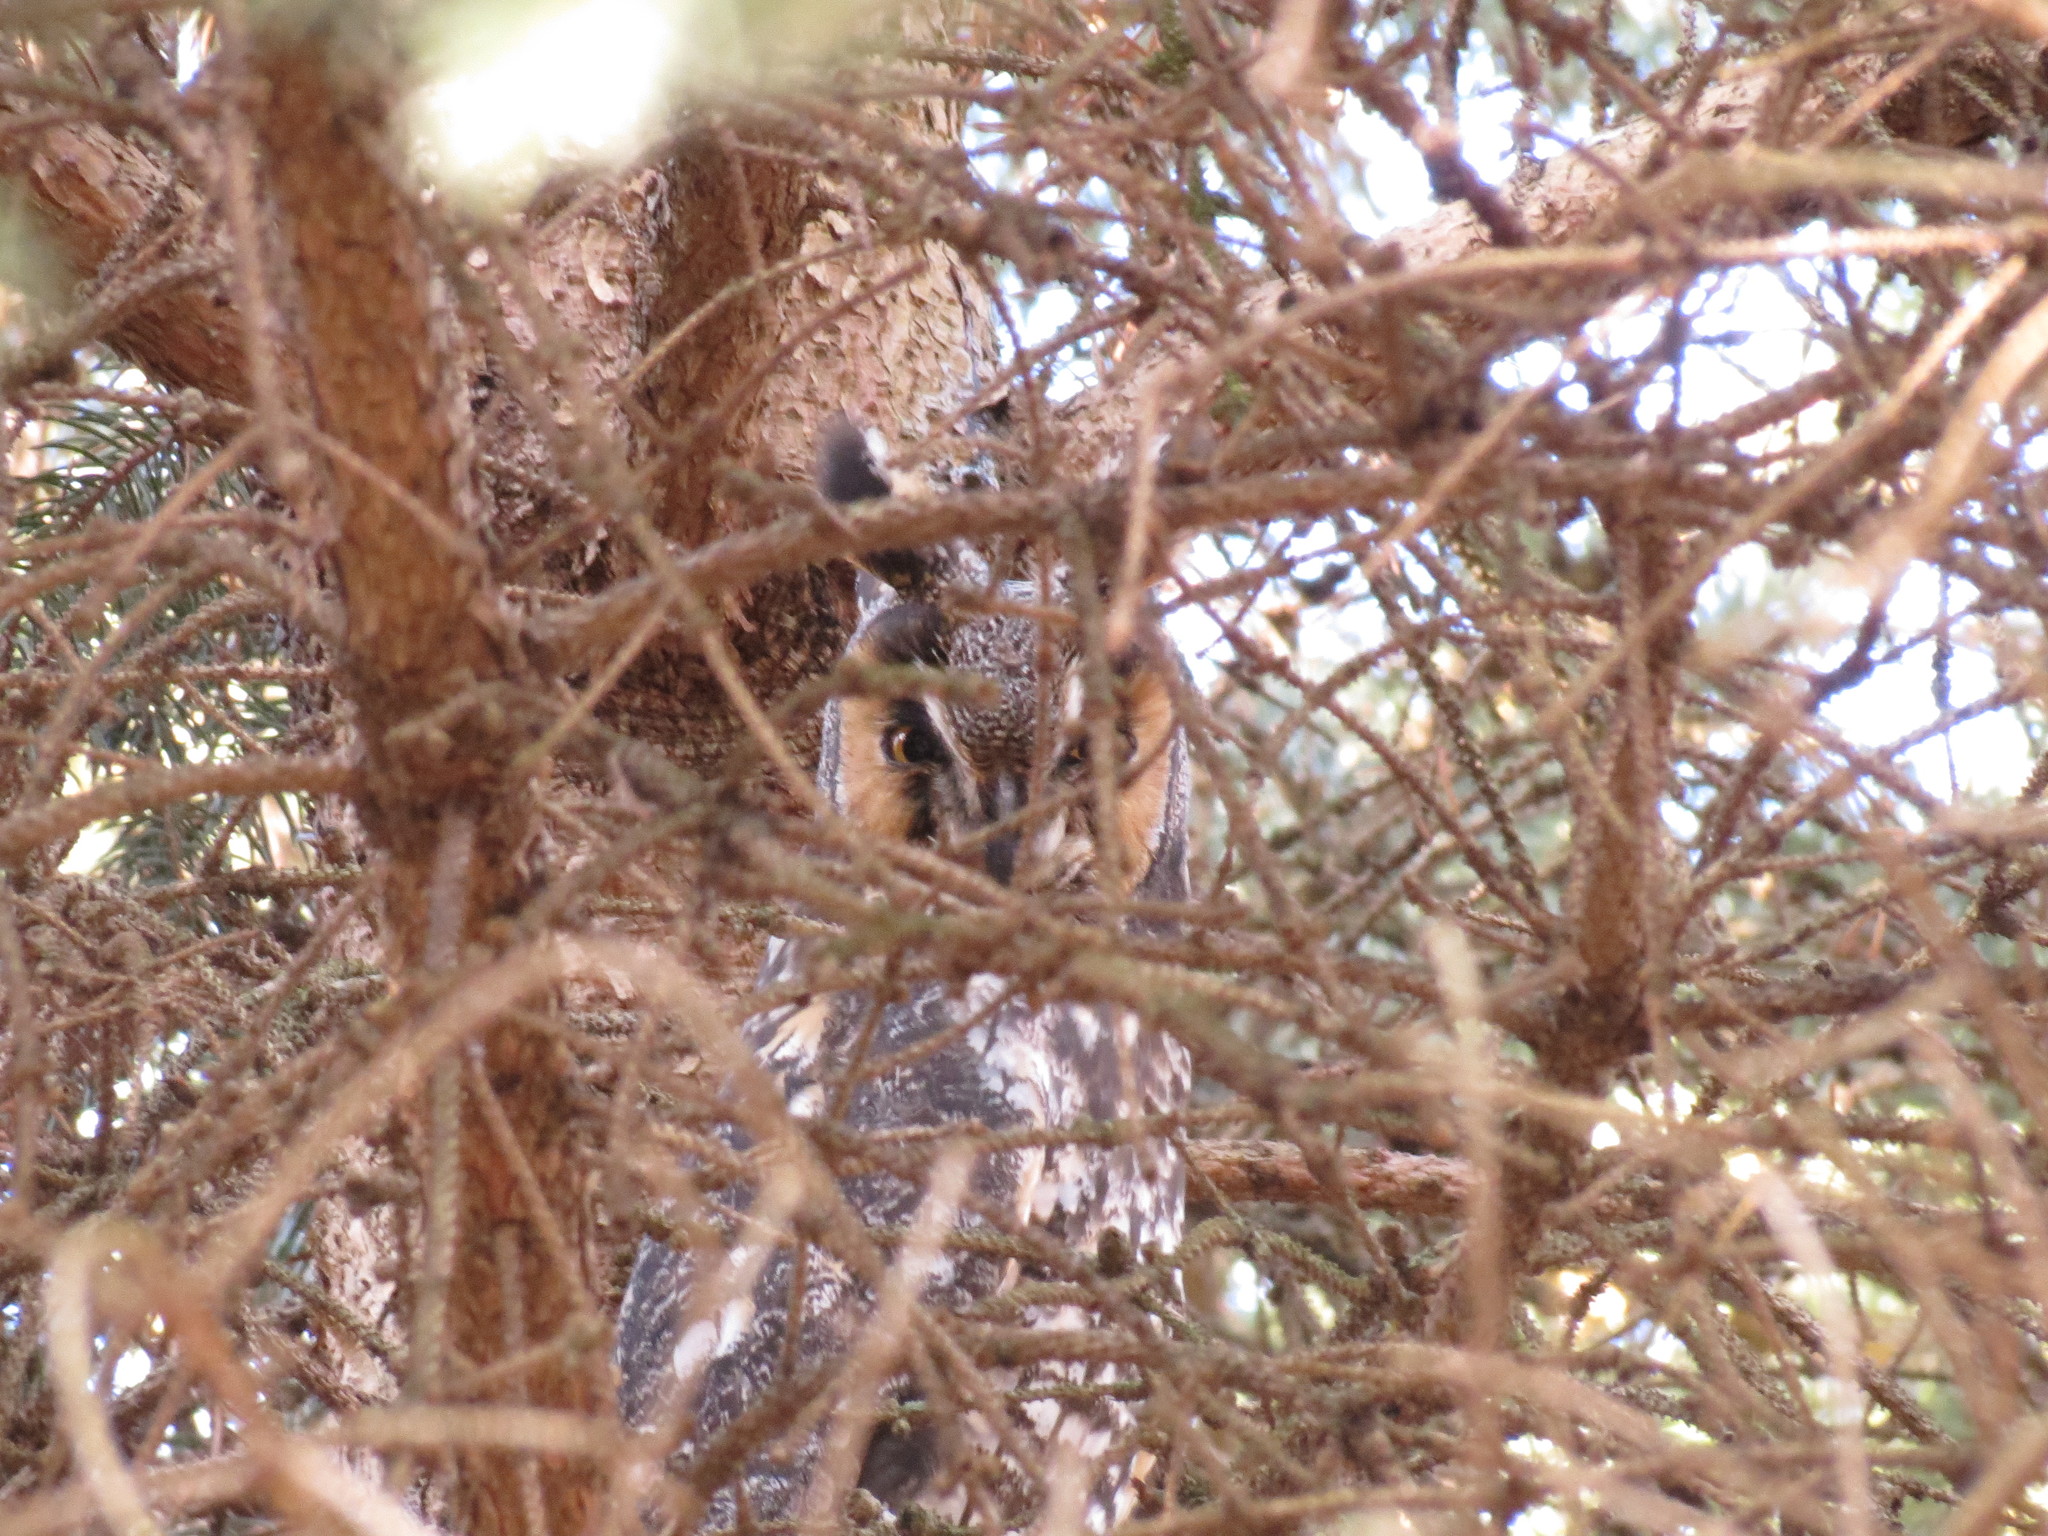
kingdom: Animalia
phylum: Chordata
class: Aves
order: Strigiformes
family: Strigidae
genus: Asio
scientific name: Asio otus
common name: Long-eared owl
